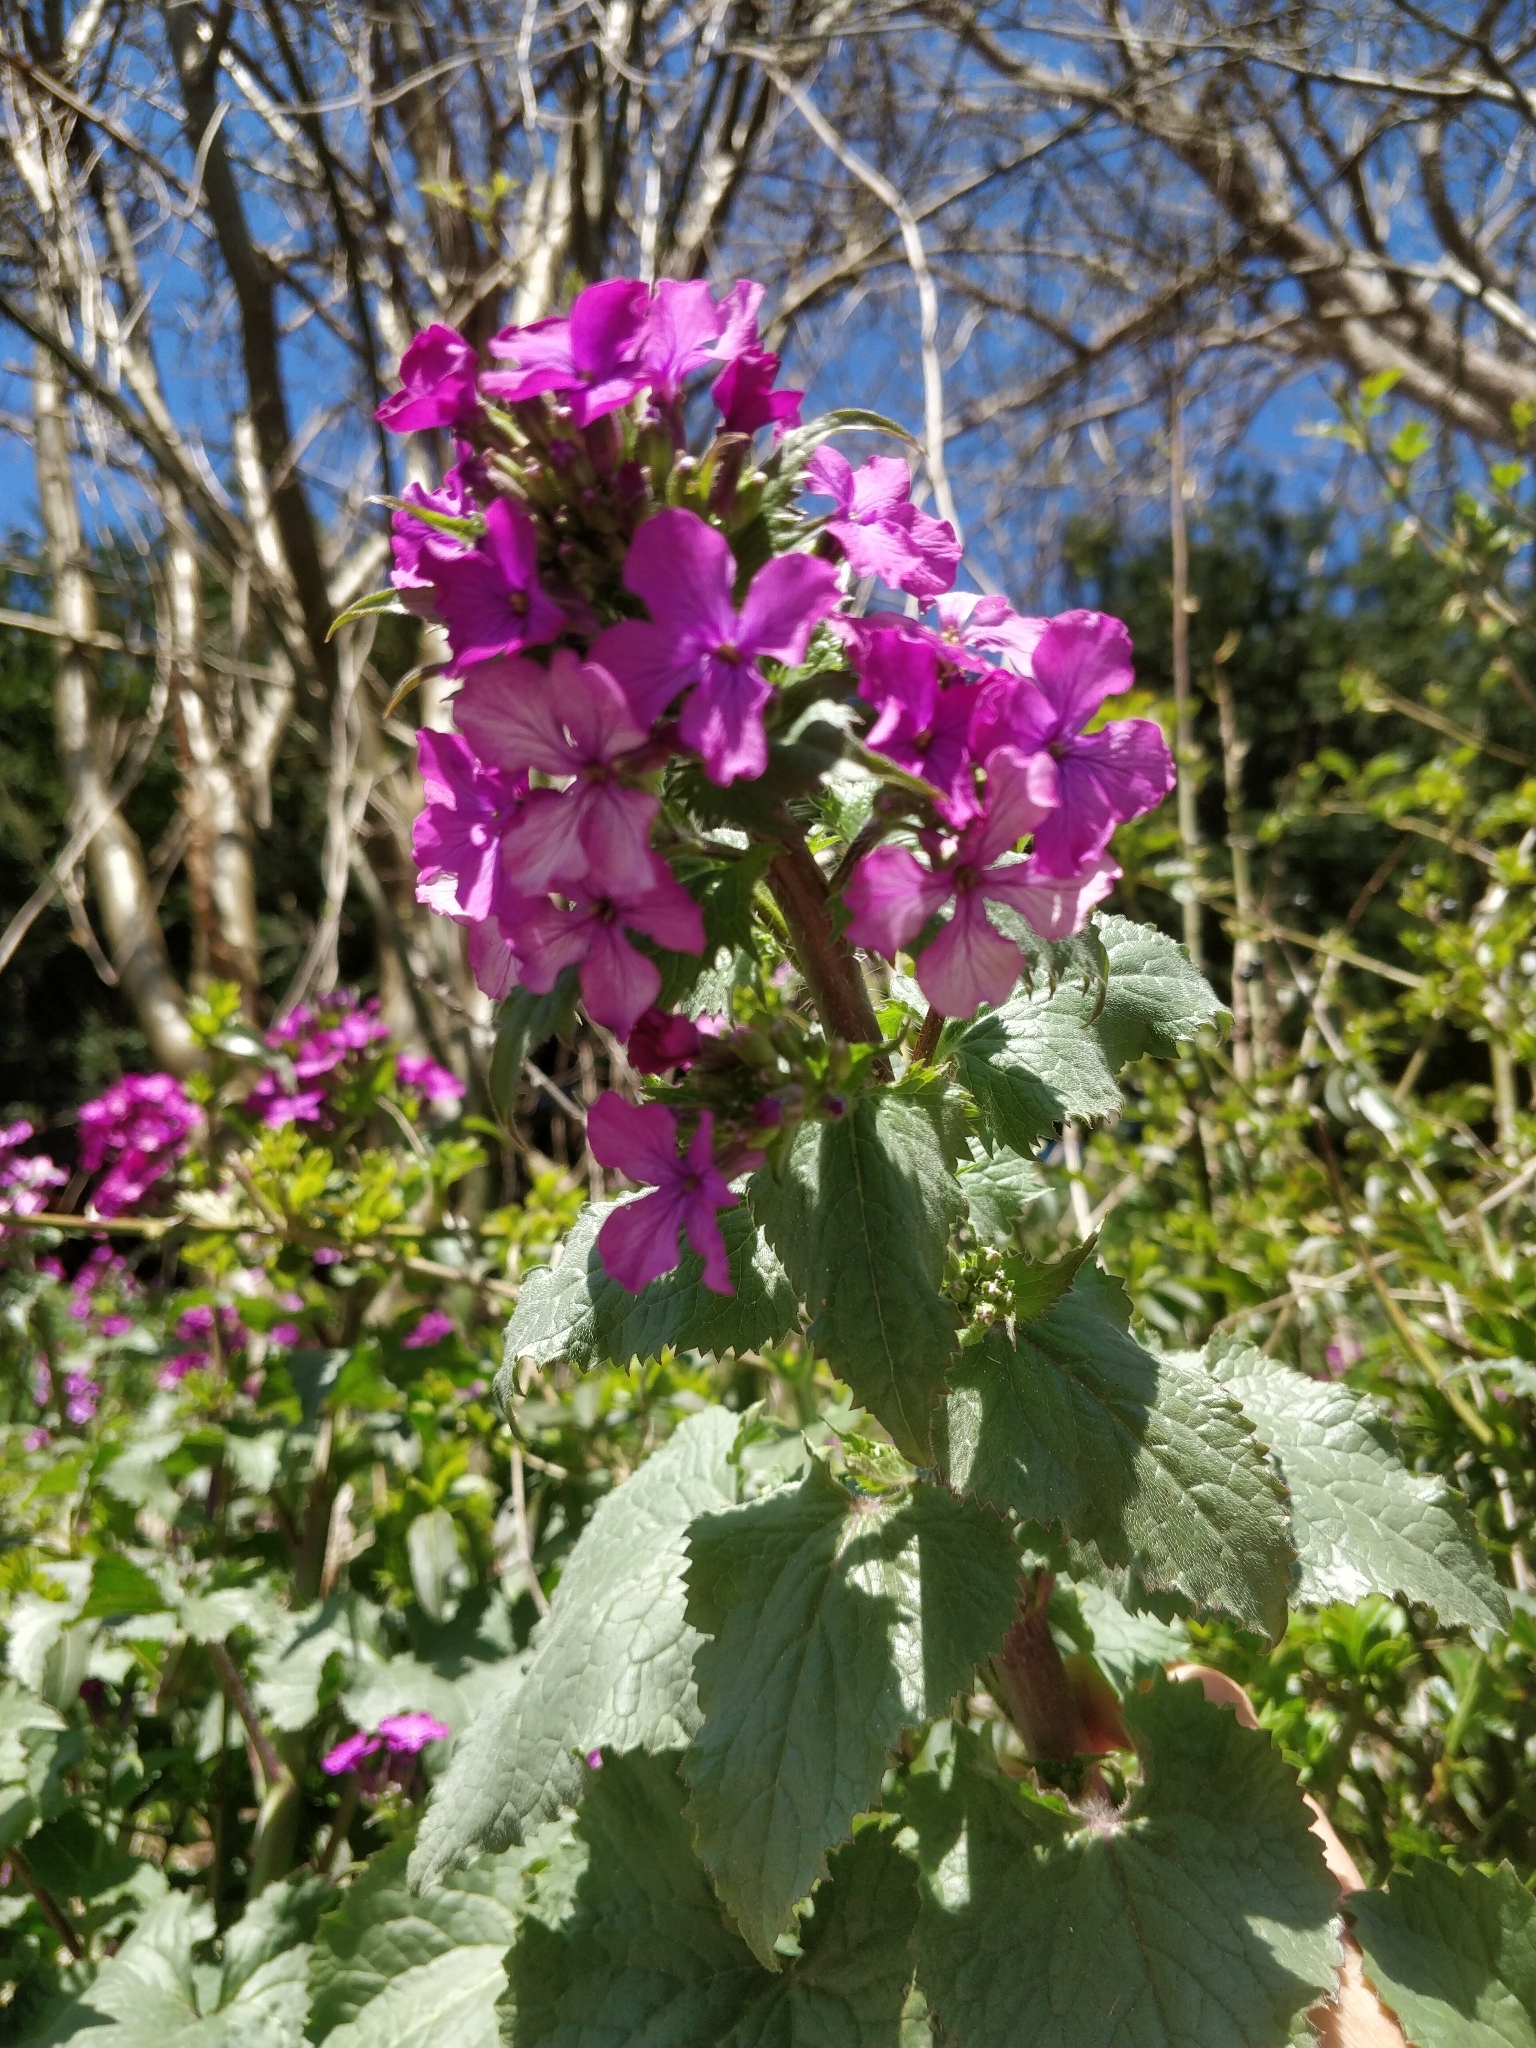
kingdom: Plantae
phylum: Tracheophyta
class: Magnoliopsida
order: Brassicales
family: Brassicaceae
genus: Lunaria
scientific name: Lunaria annua
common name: Honesty
